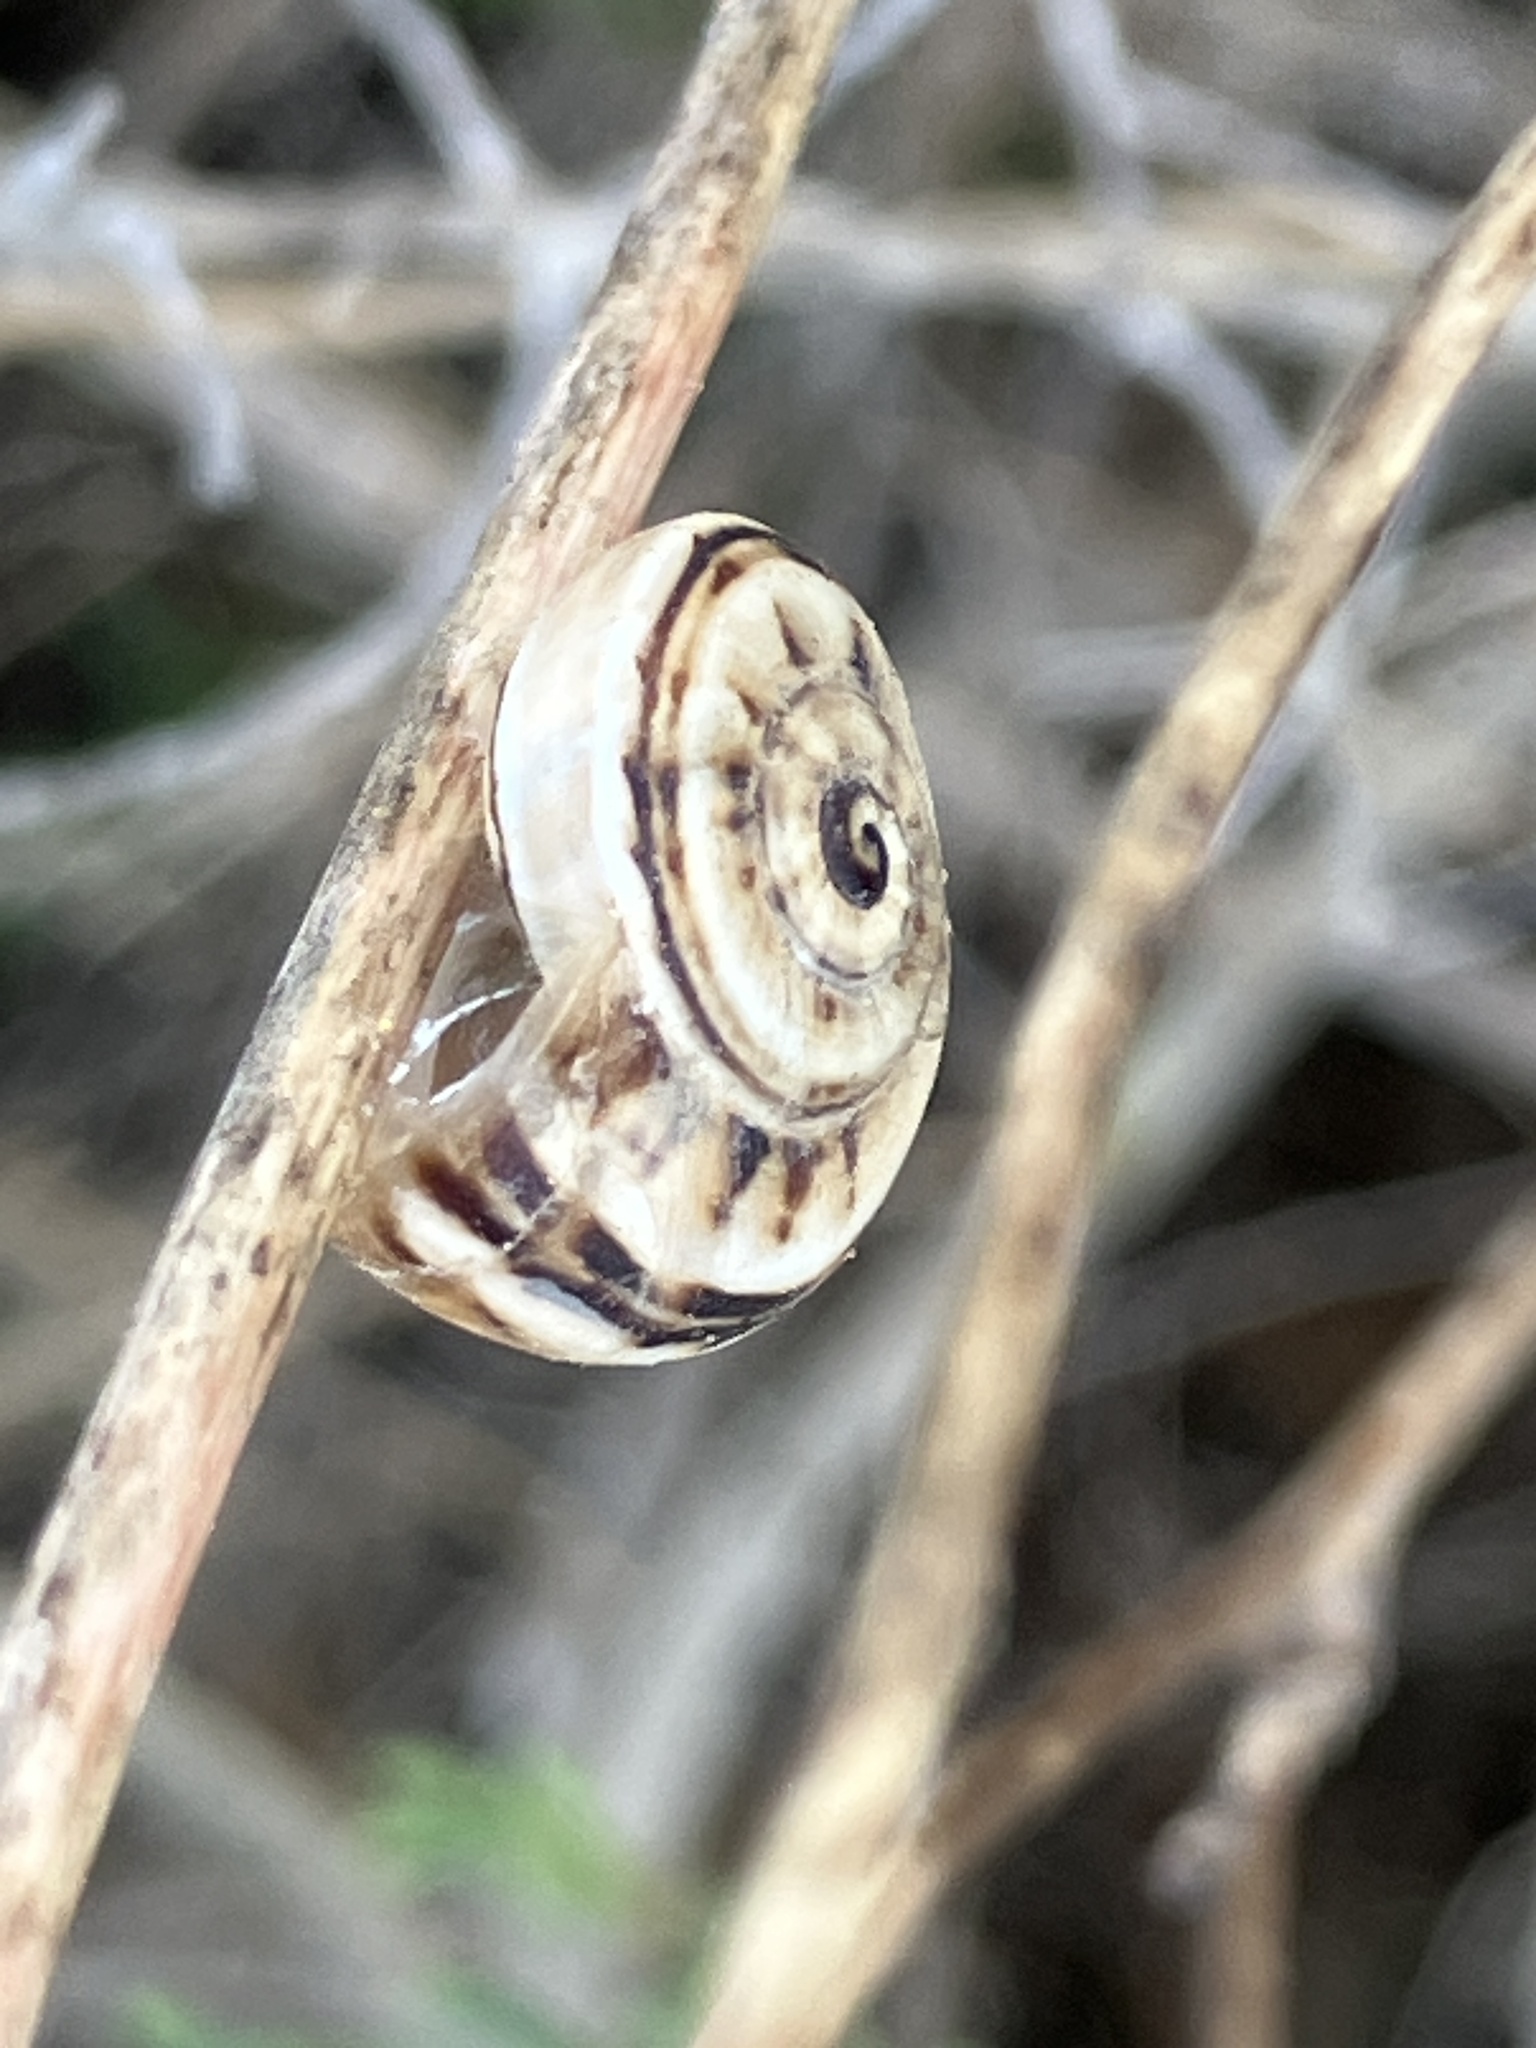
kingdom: Animalia
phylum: Mollusca
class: Gastropoda
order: Stylommatophora
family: Helicidae
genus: Theba
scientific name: Theba pisana
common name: White snail
